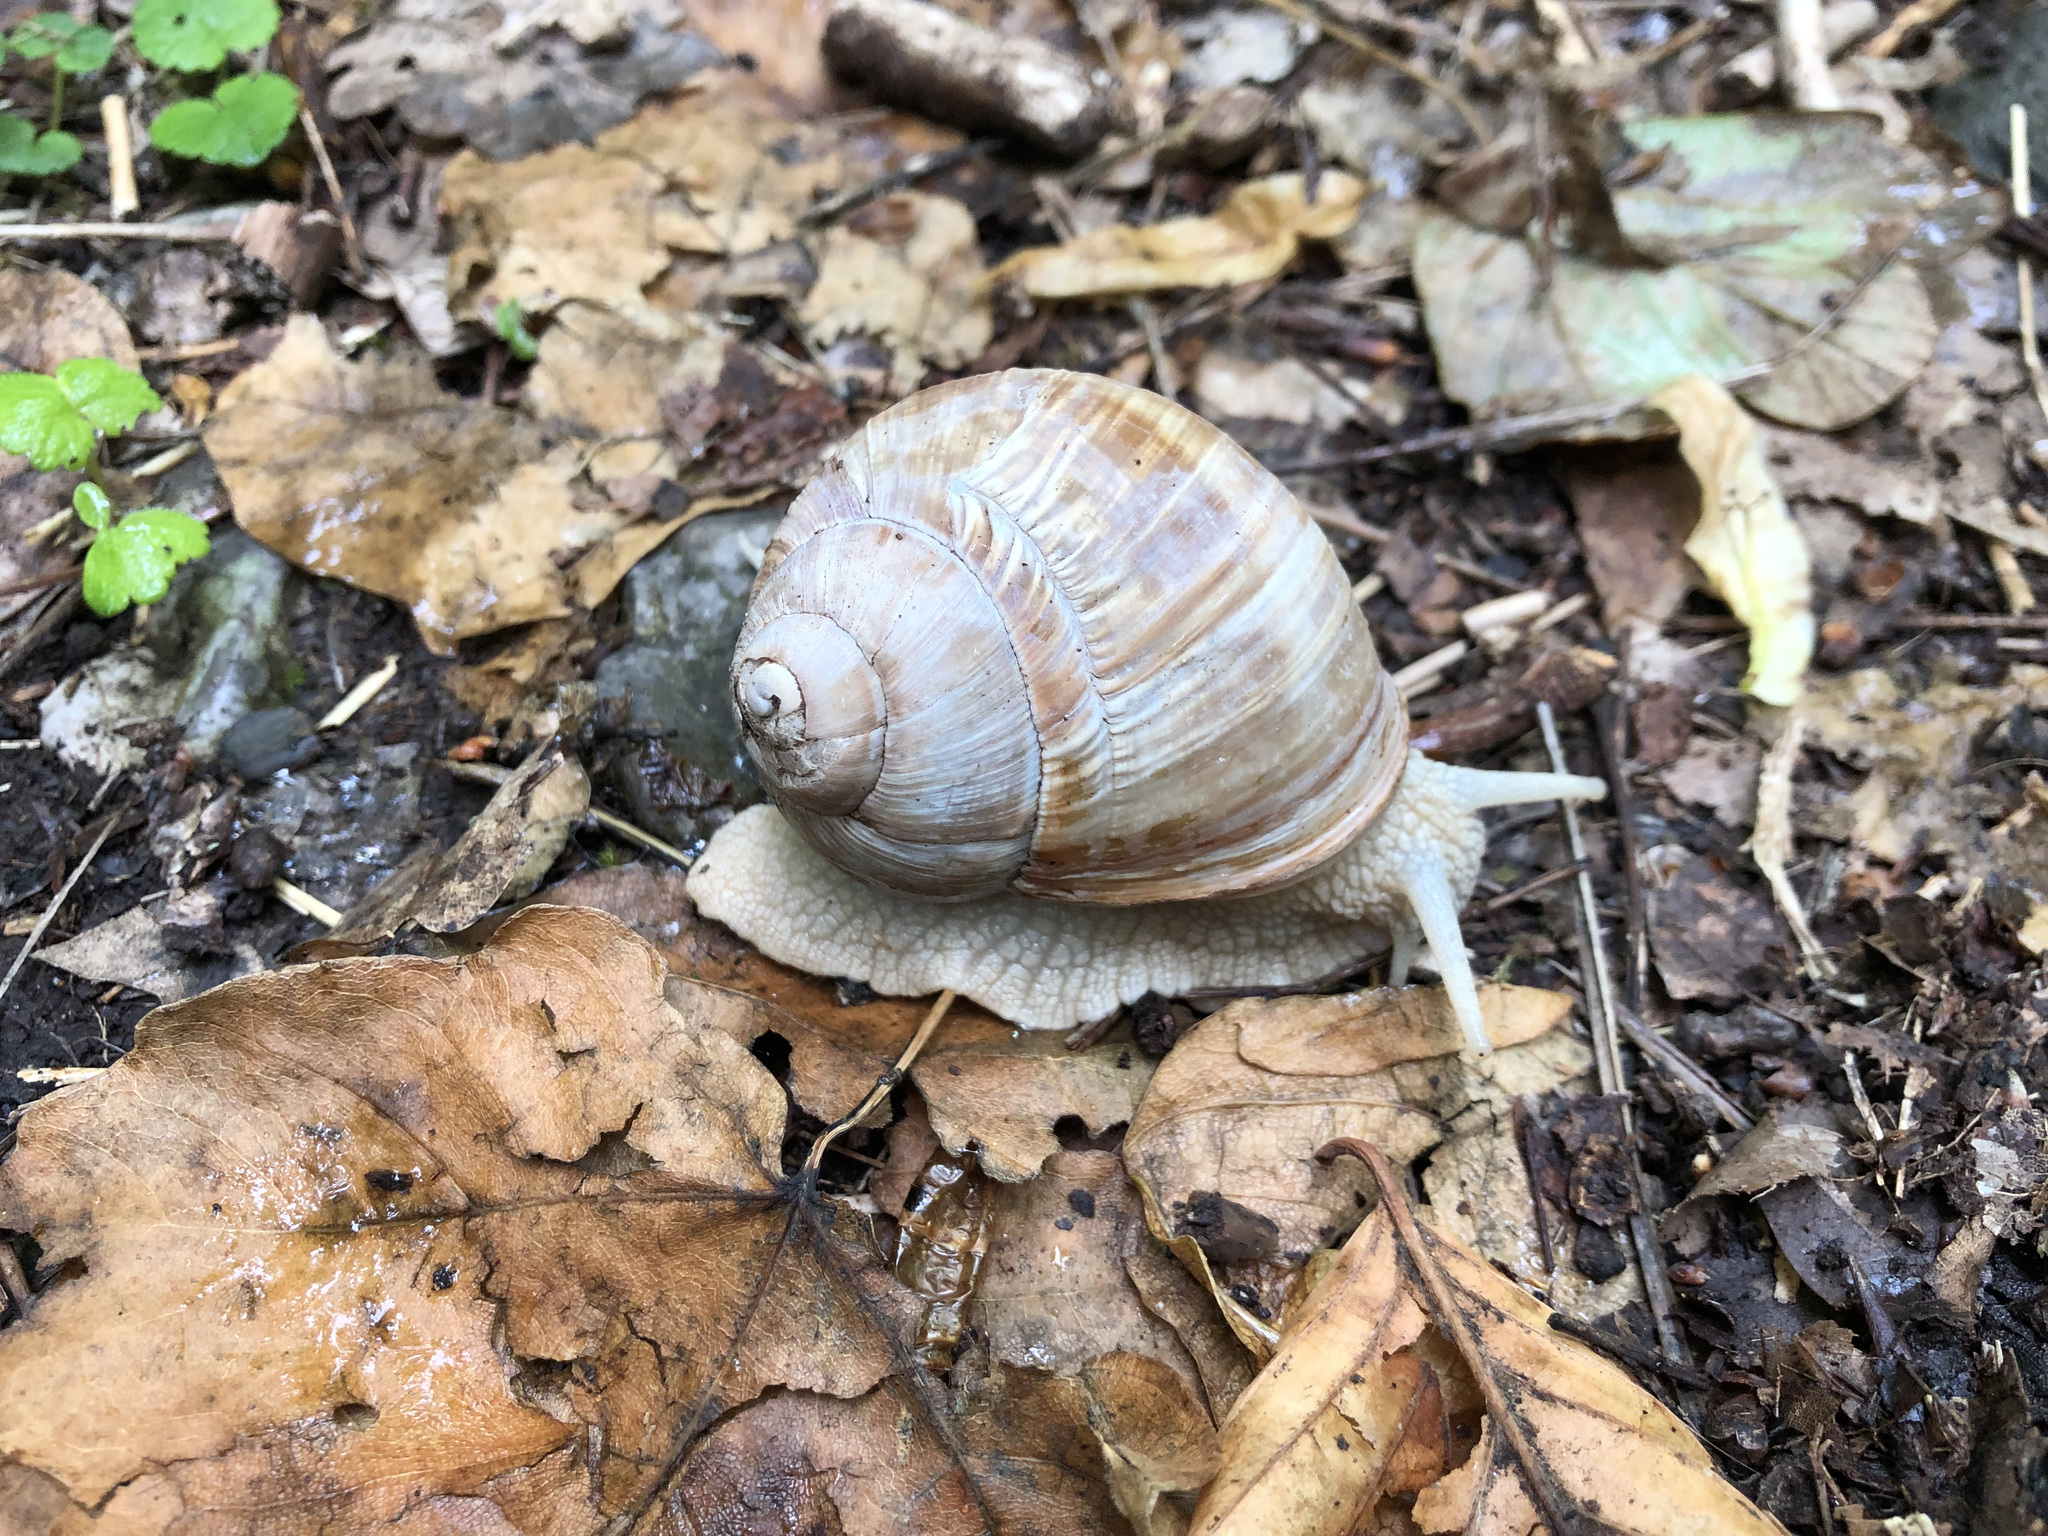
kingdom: Animalia
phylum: Mollusca
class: Gastropoda
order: Stylommatophora
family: Helicidae
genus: Helix
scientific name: Helix pomatia
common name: Roman snail
